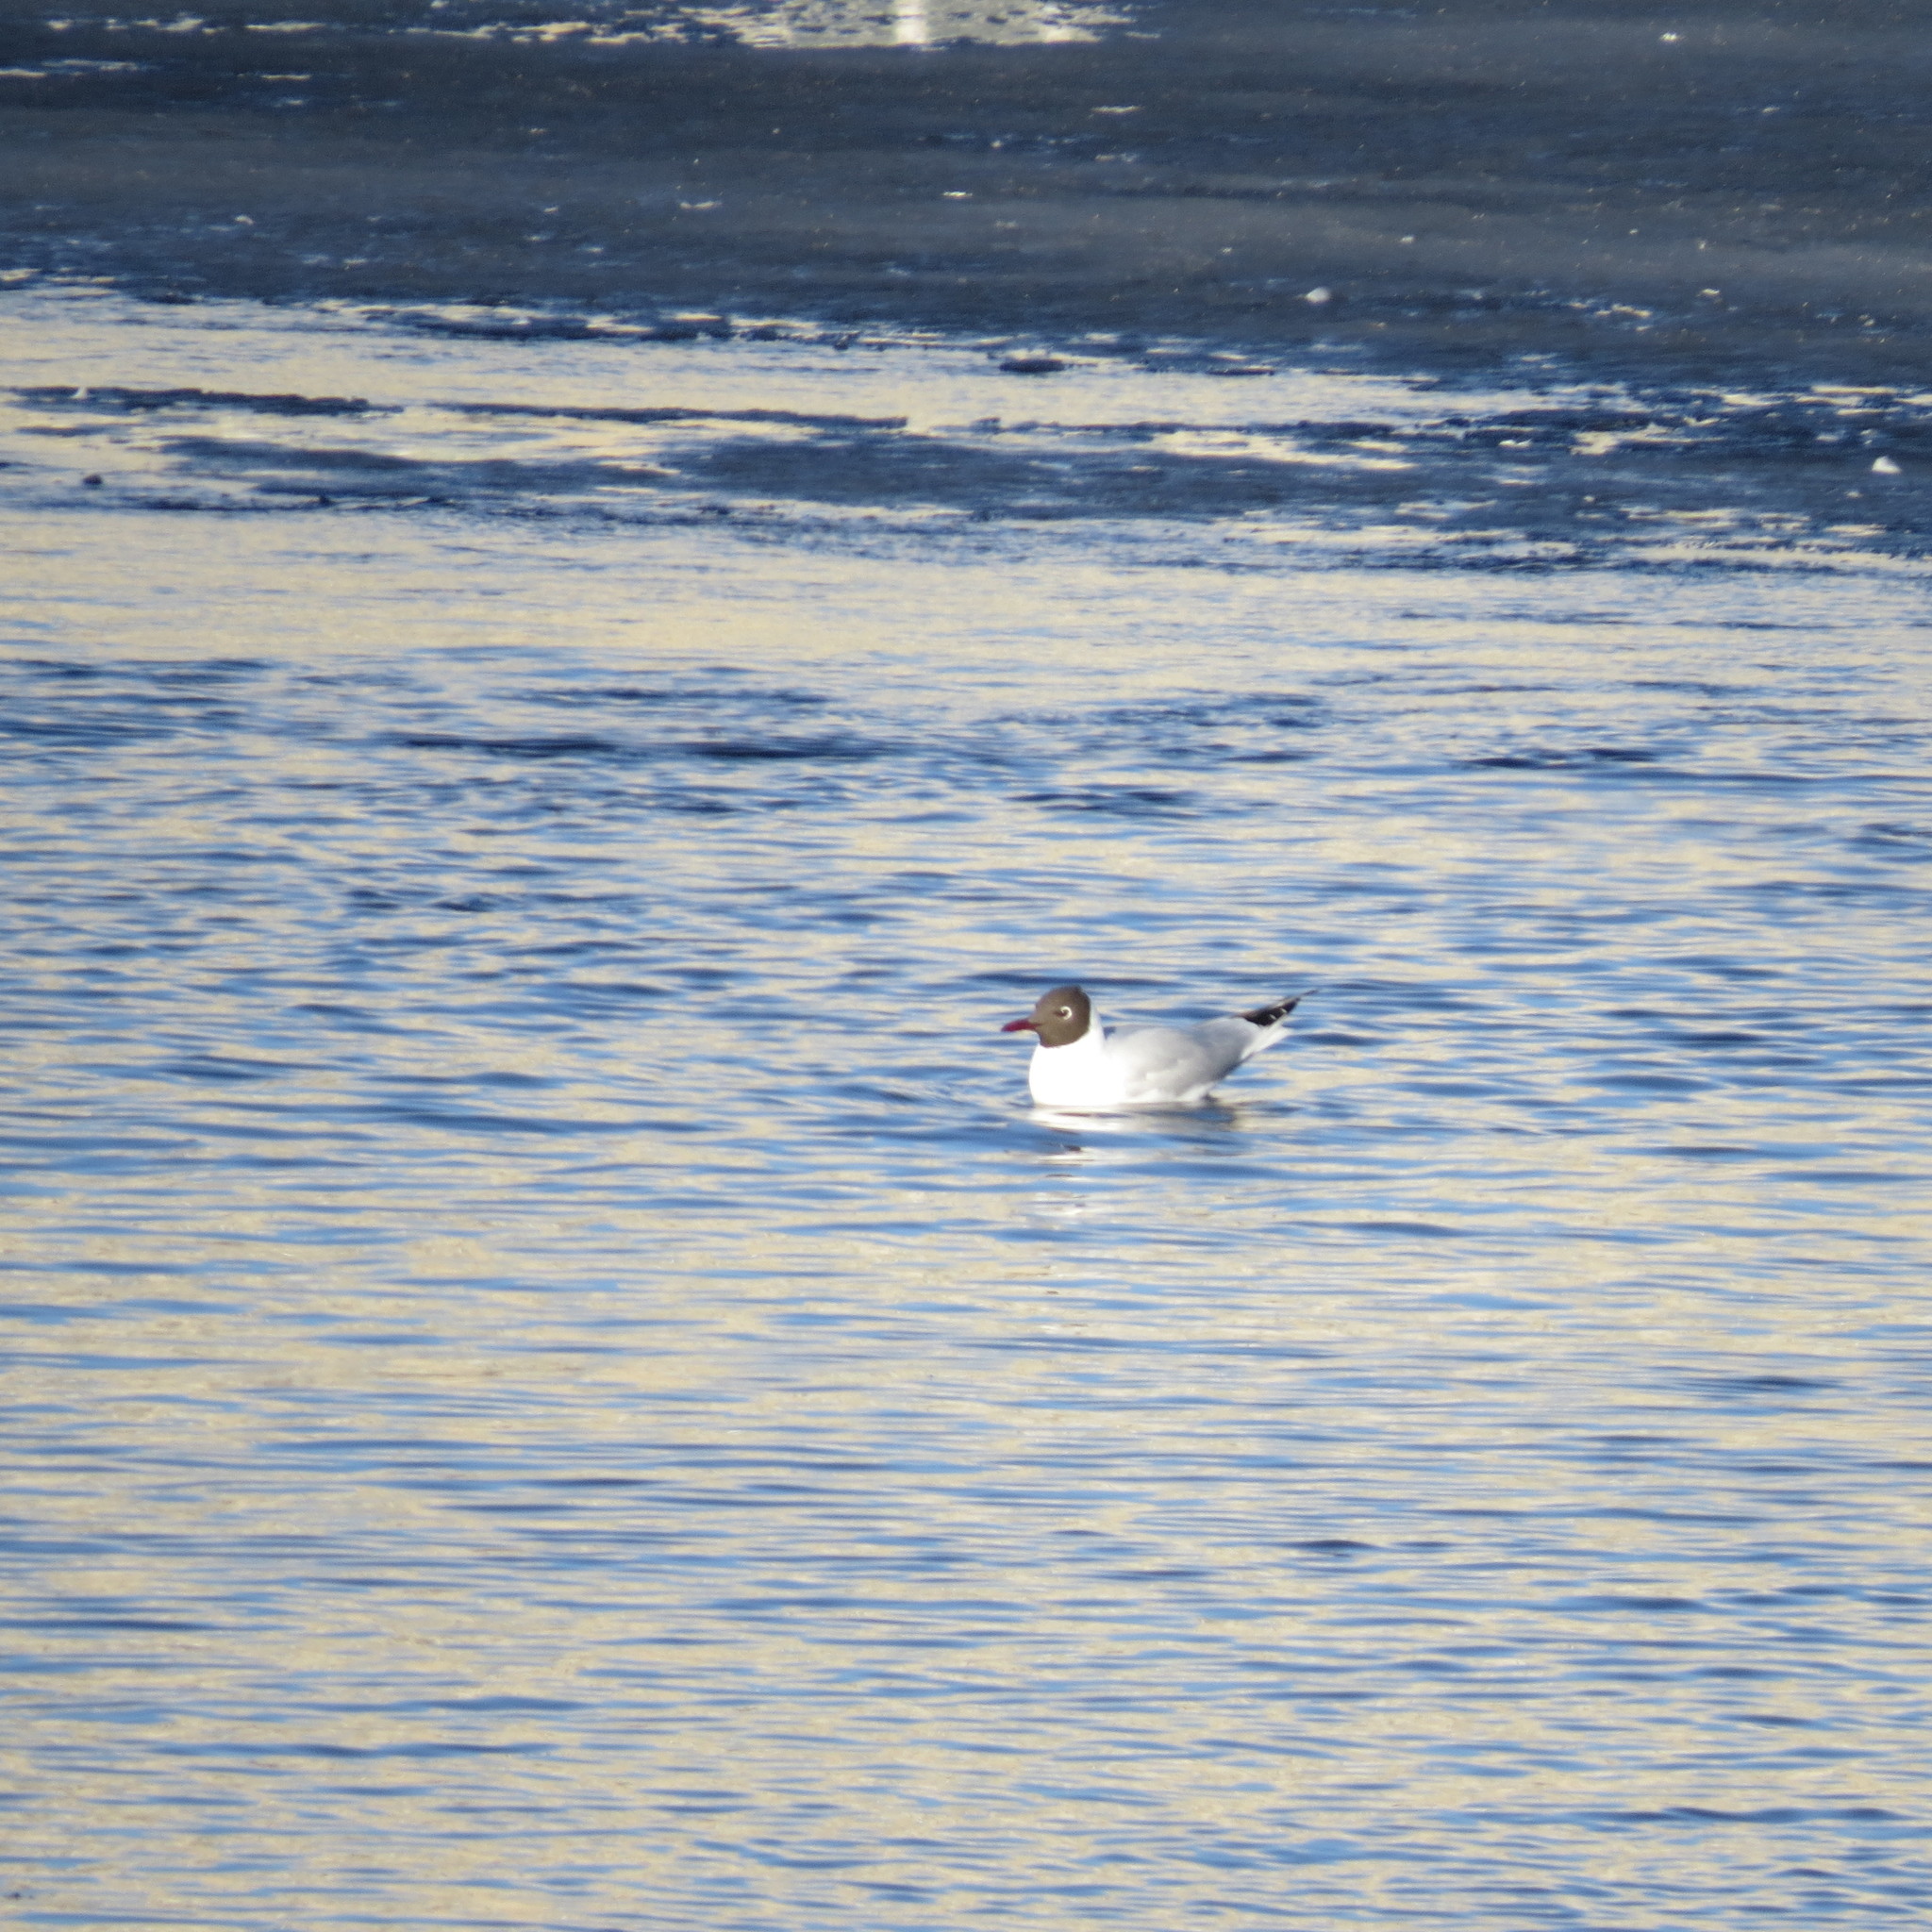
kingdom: Animalia
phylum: Chordata
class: Aves
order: Charadriiformes
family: Laridae
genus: Chroicocephalus
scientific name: Chroicocephalus ridibundus
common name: Black-headed gull
